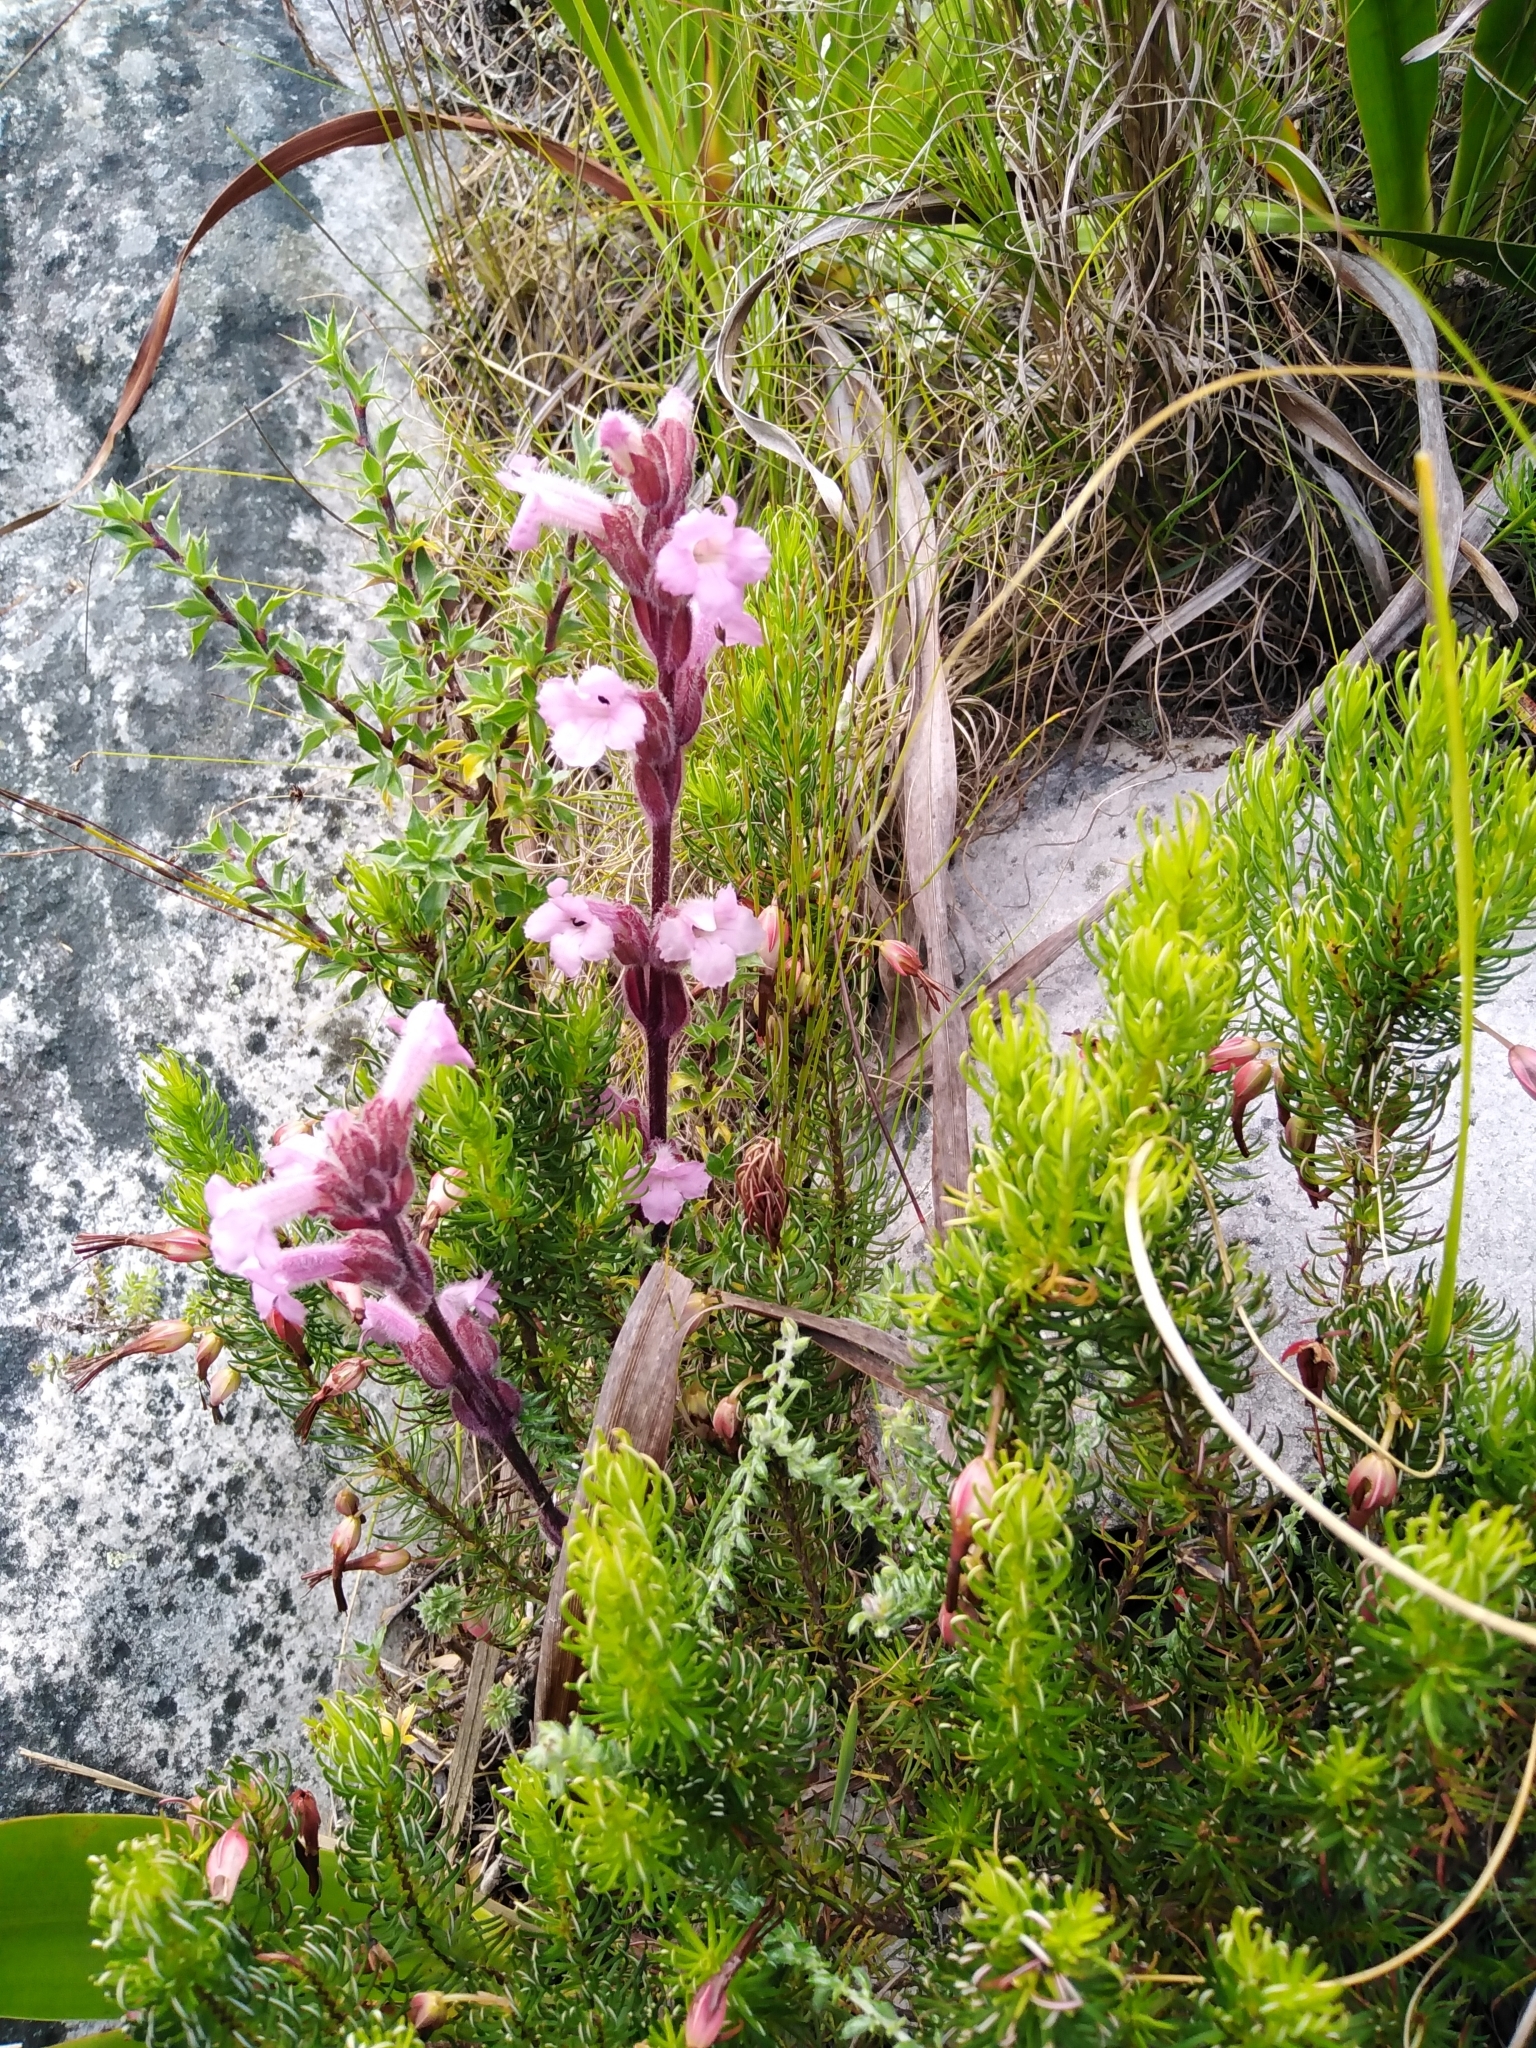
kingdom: Plantae
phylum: Tracheophyta
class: Magnoliopsida
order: Lamiales
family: Orobanchaceae
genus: Harveya
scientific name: Harveya pauciflora
